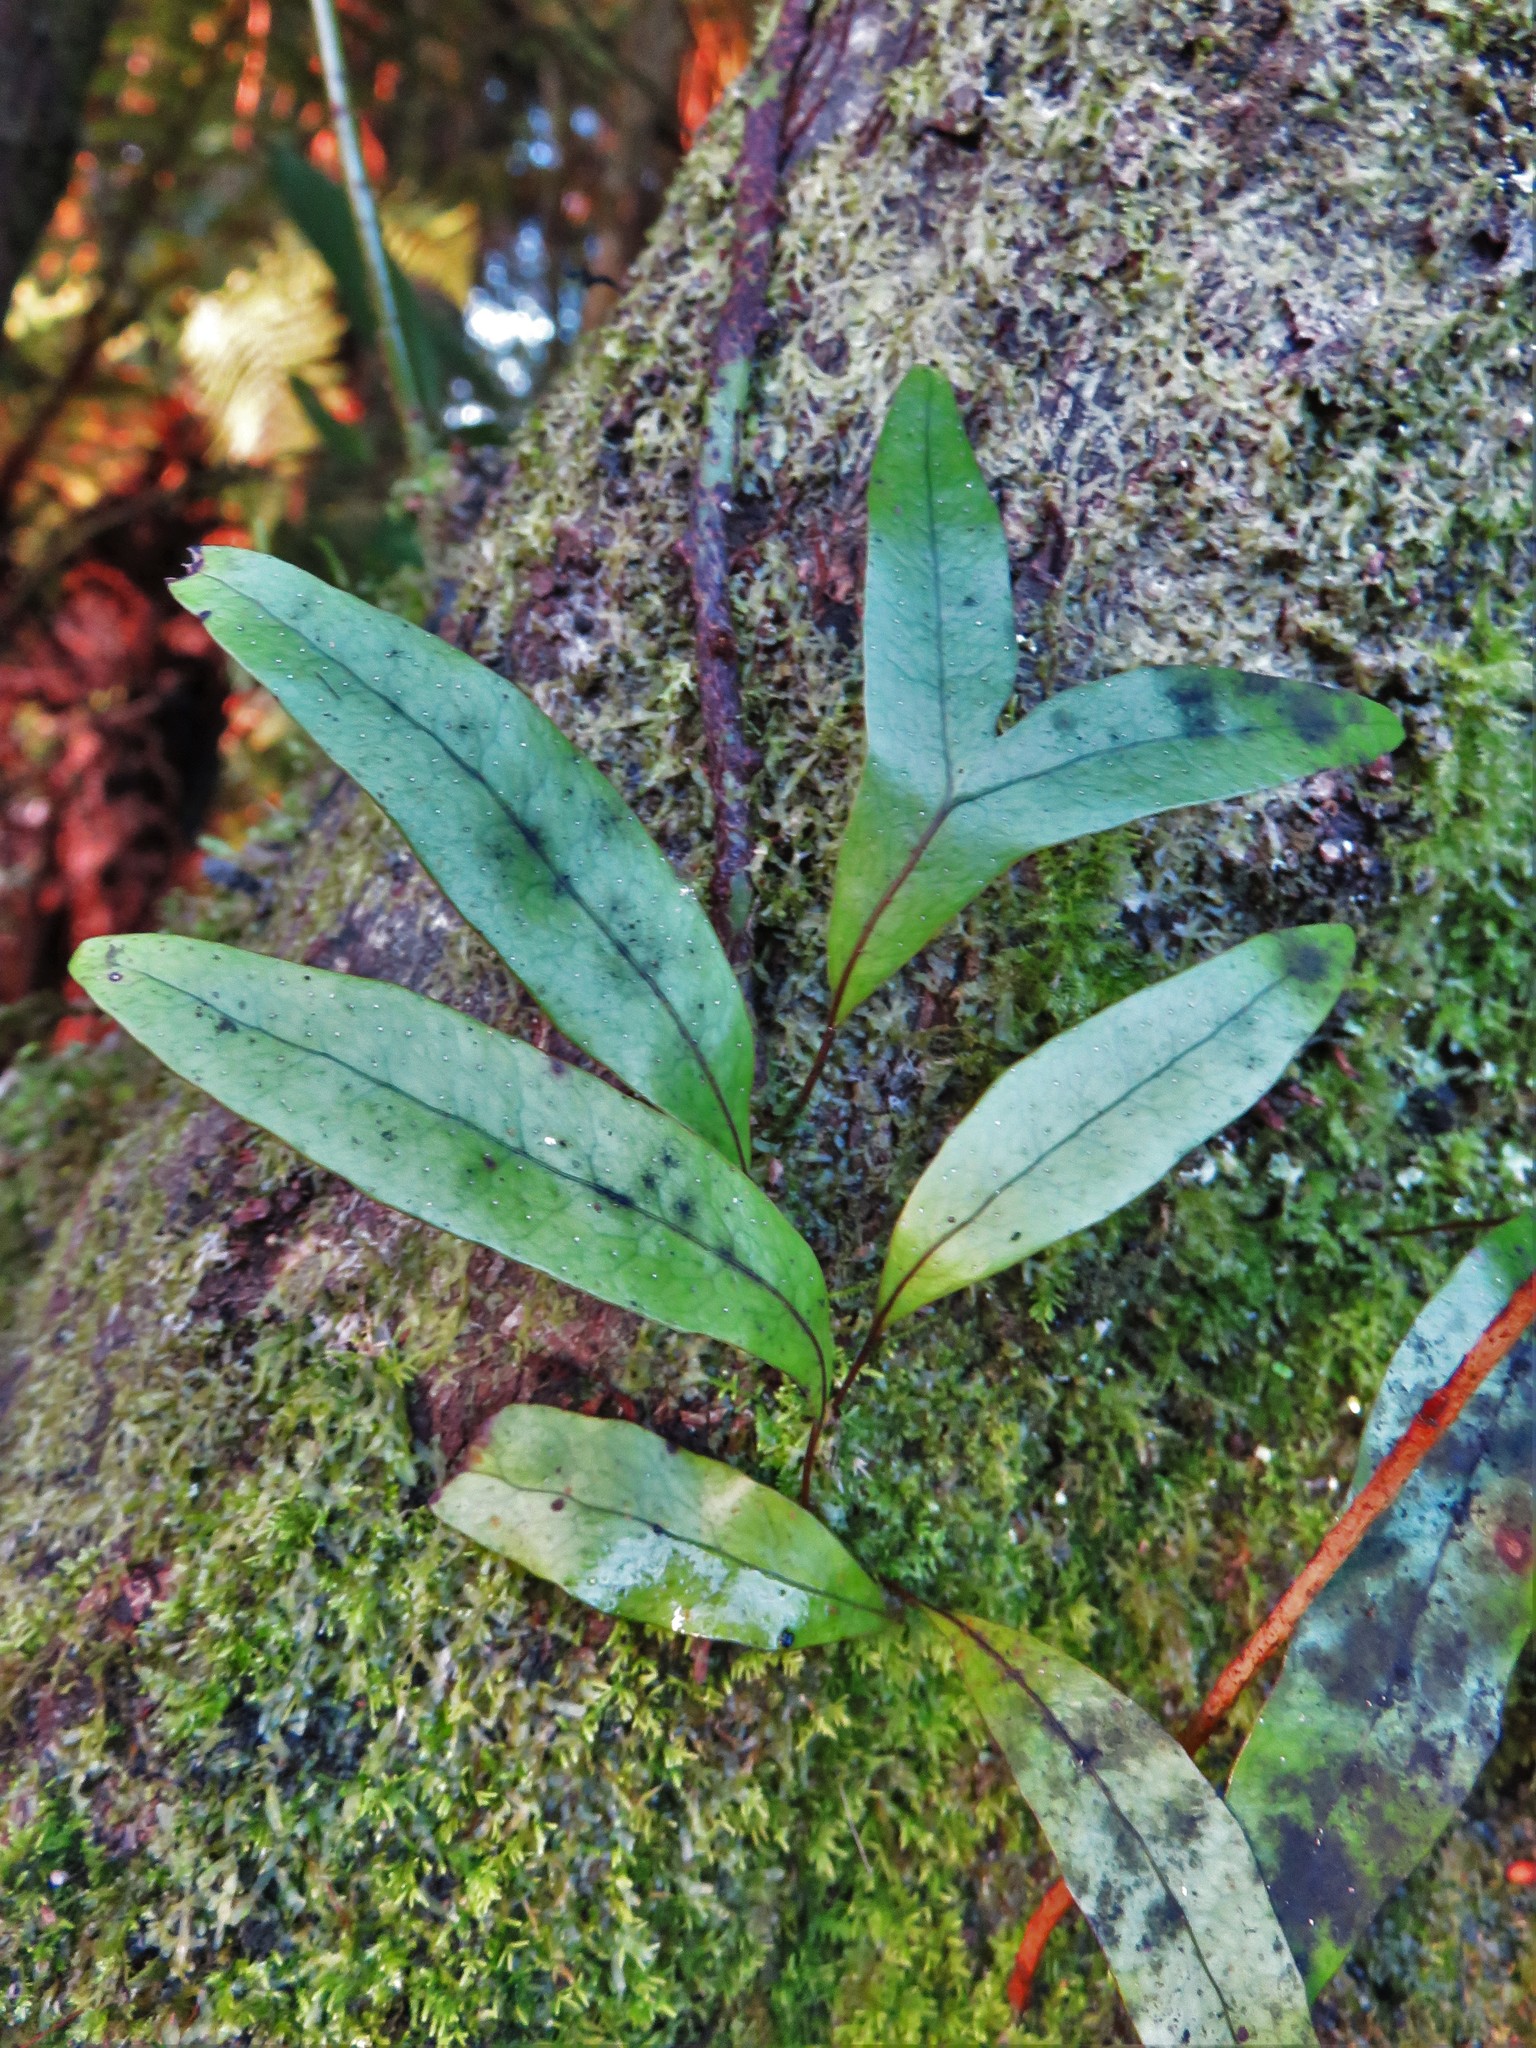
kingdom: Plantae
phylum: Tracheophyta
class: Polypodiopsida
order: Polypodiales
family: Polypodiaceae
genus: Lecanopteris
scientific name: Lecanopteris pustulata
